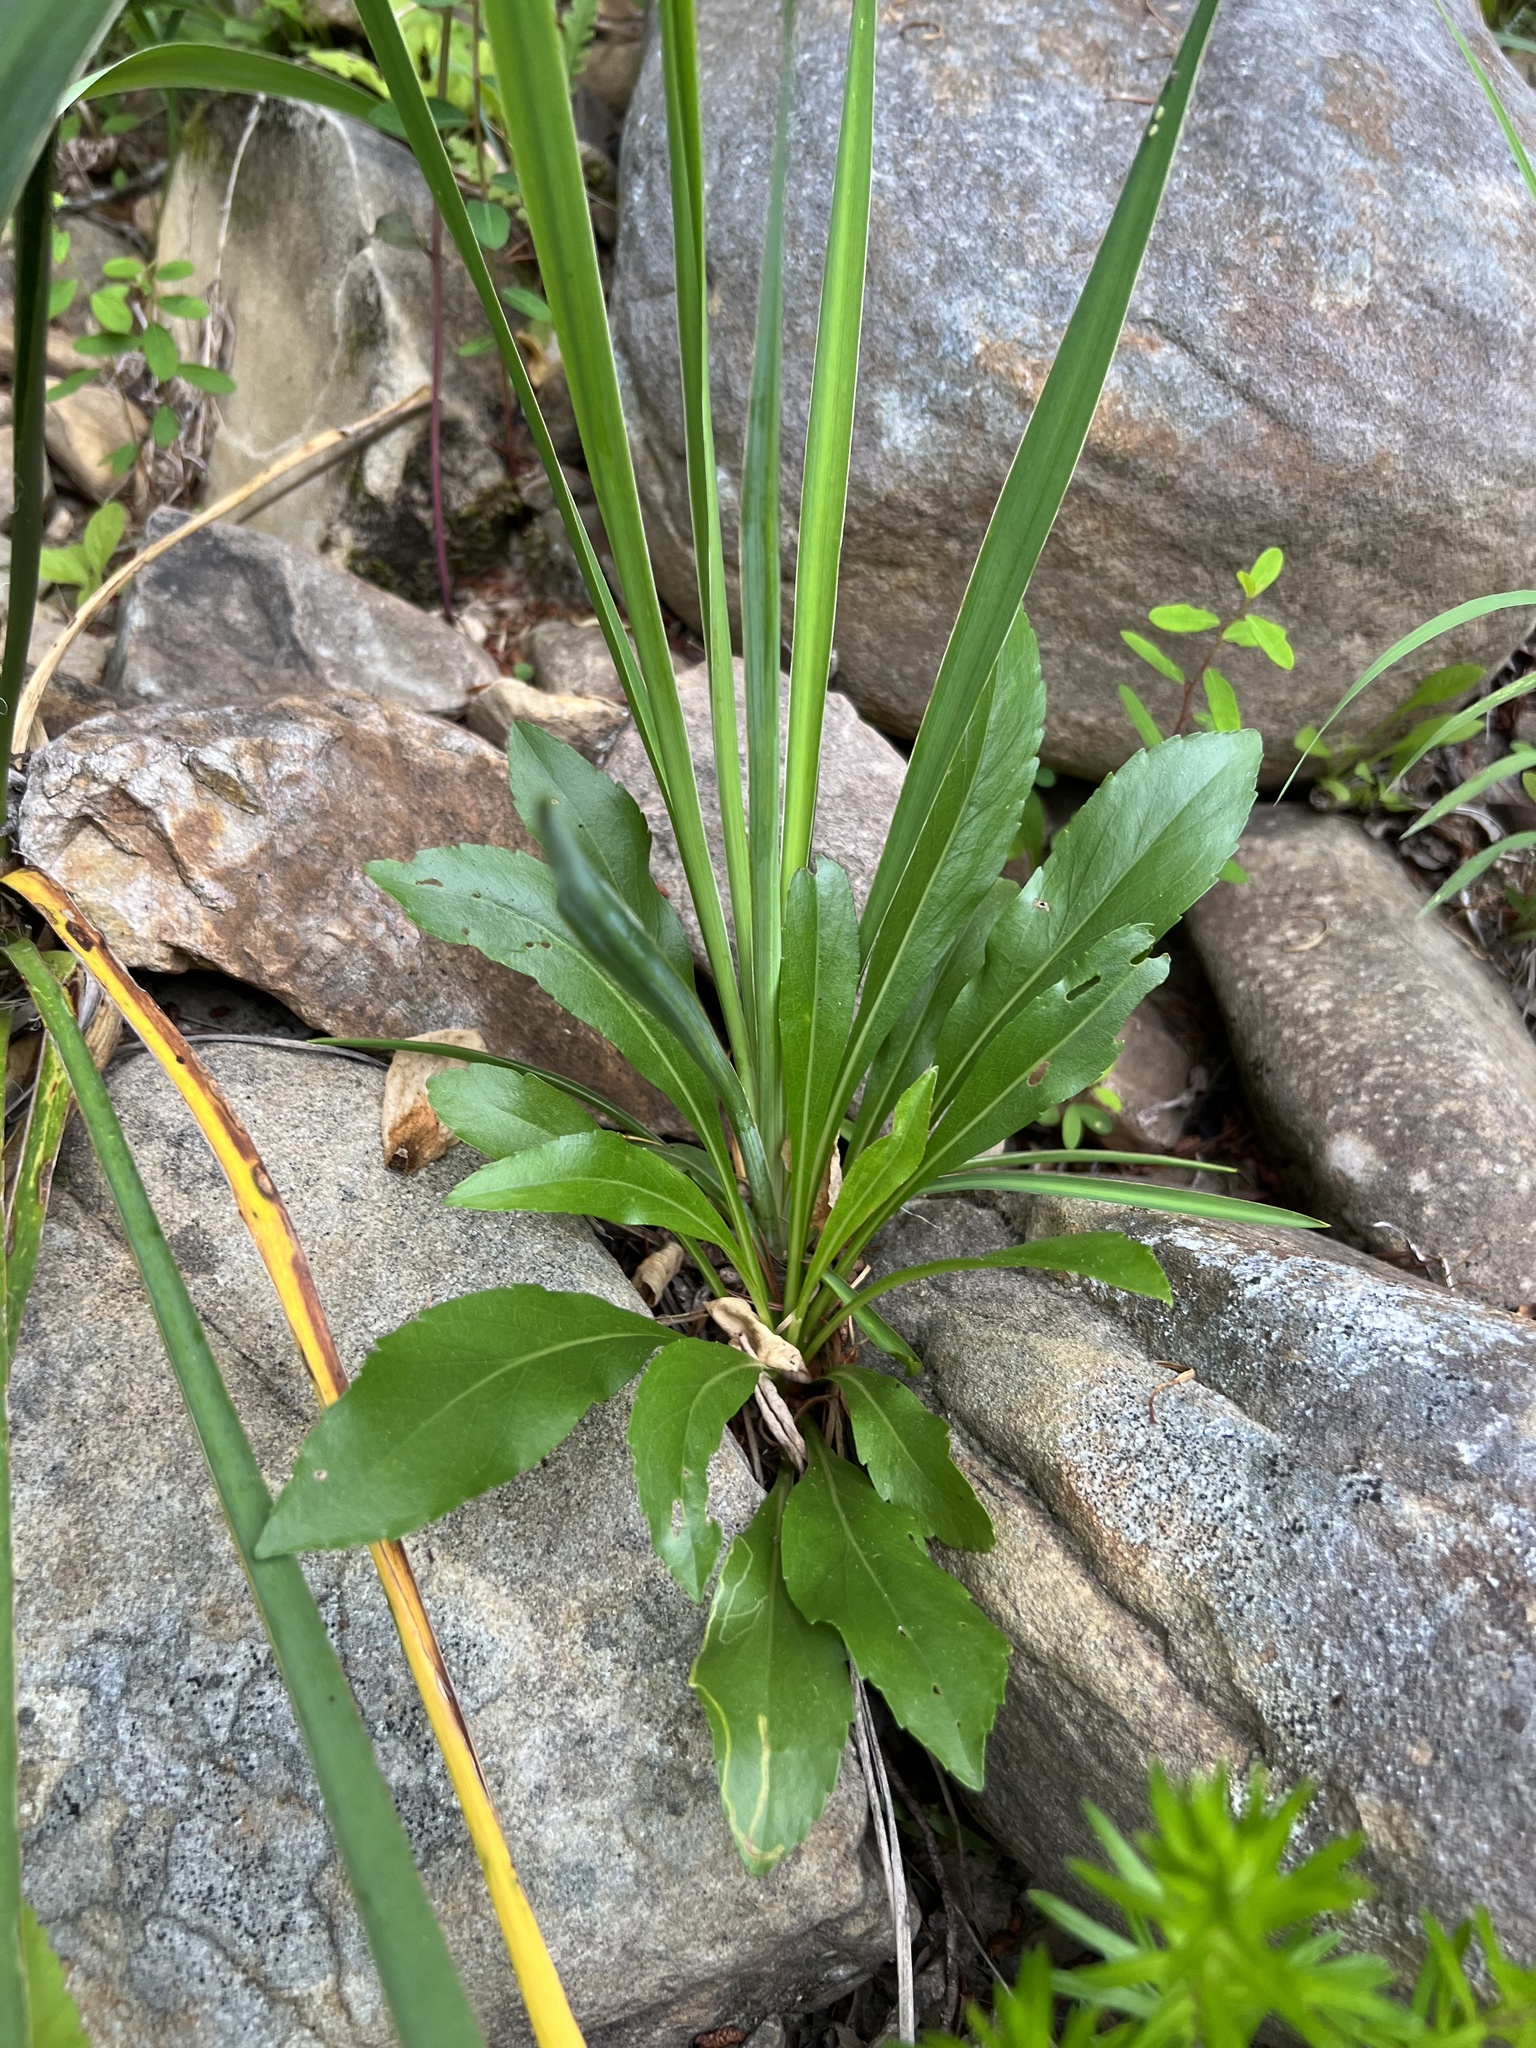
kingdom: Plantae
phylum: Tracheophyta
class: Magnoliopsida
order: Asterales
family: Asteraceae
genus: Solidago
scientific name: Solidago arenicola
